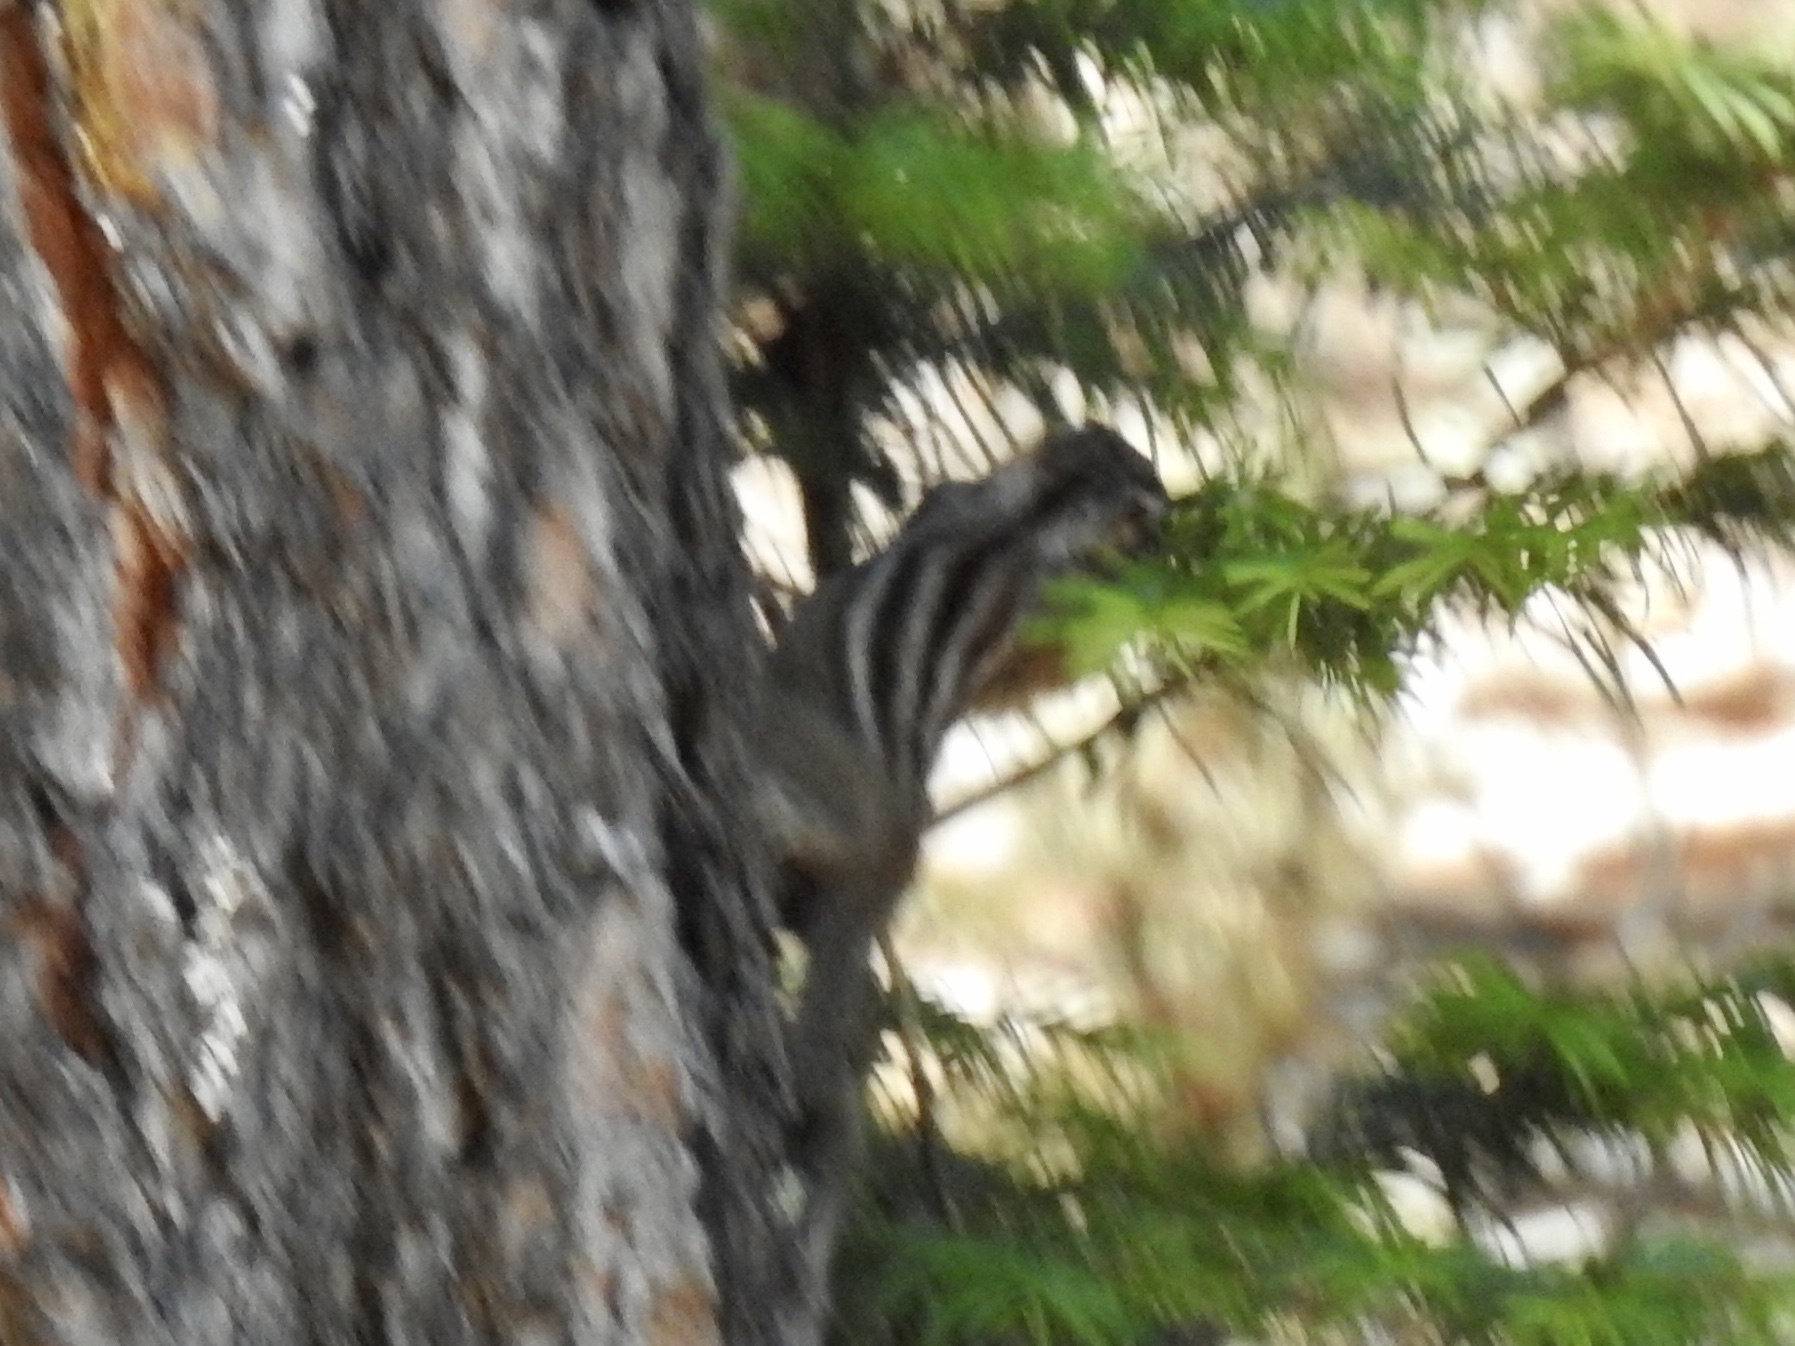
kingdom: Animalia
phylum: Chordata
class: Mammalia
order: Rodentia
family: Sciuridae
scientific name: Sciuridae
